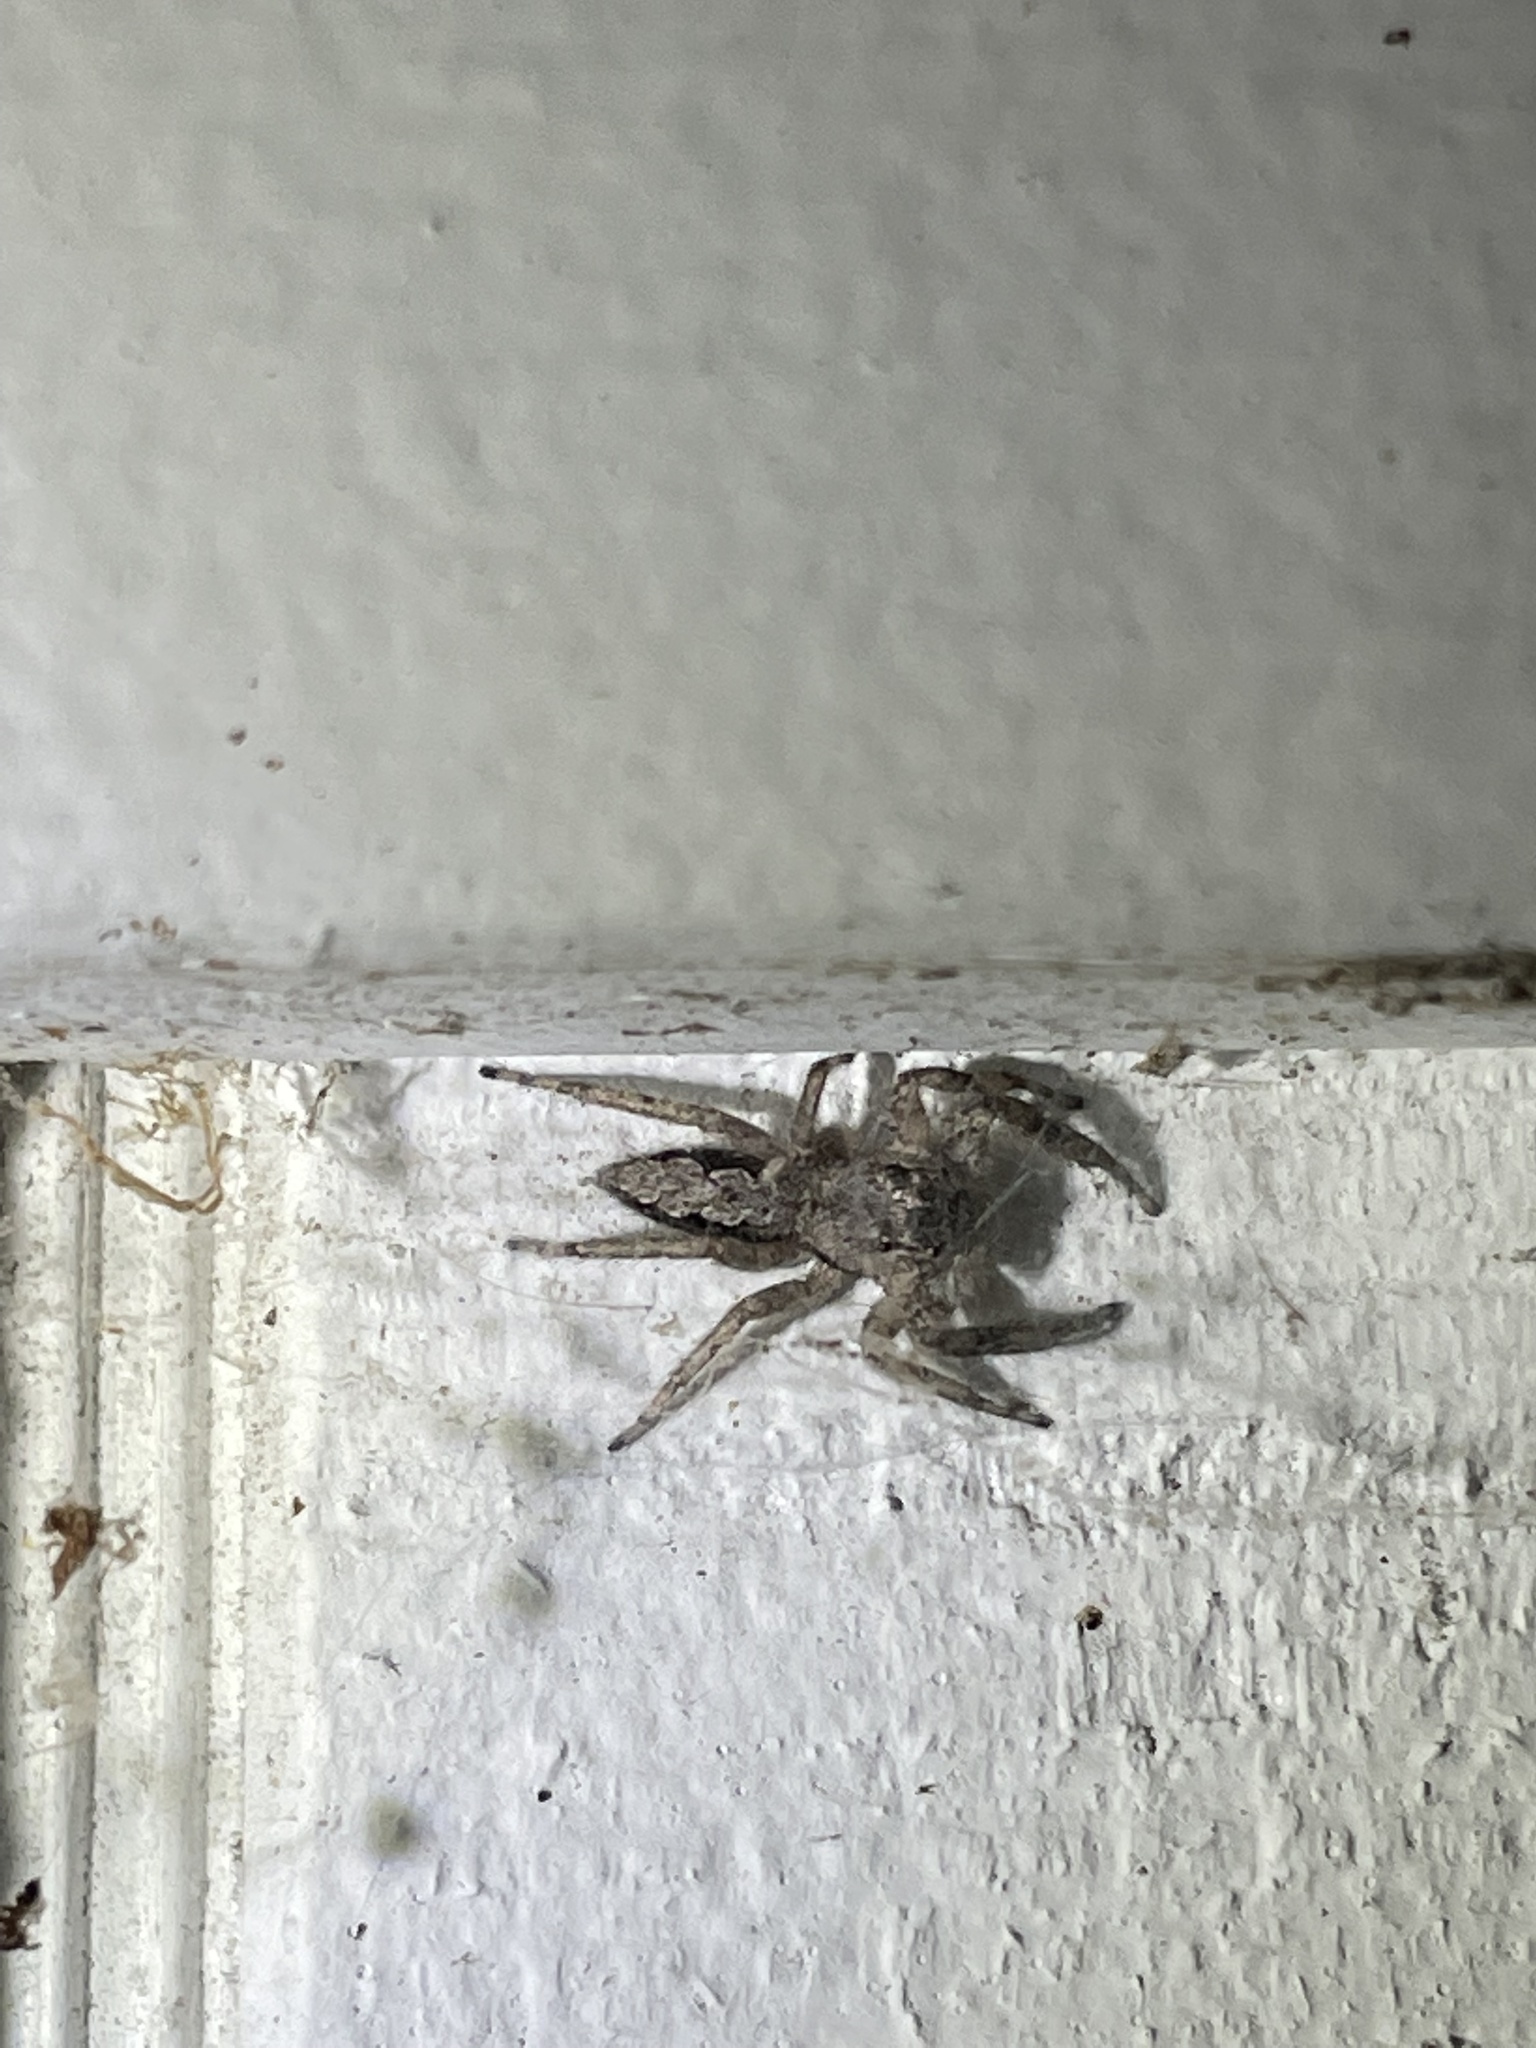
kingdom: Animalia
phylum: Arthropoda
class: Arachnida
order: Araneae
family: Salticidae
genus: Platycryptus
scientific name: Platycryptus undatus
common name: Tan jumping spider
